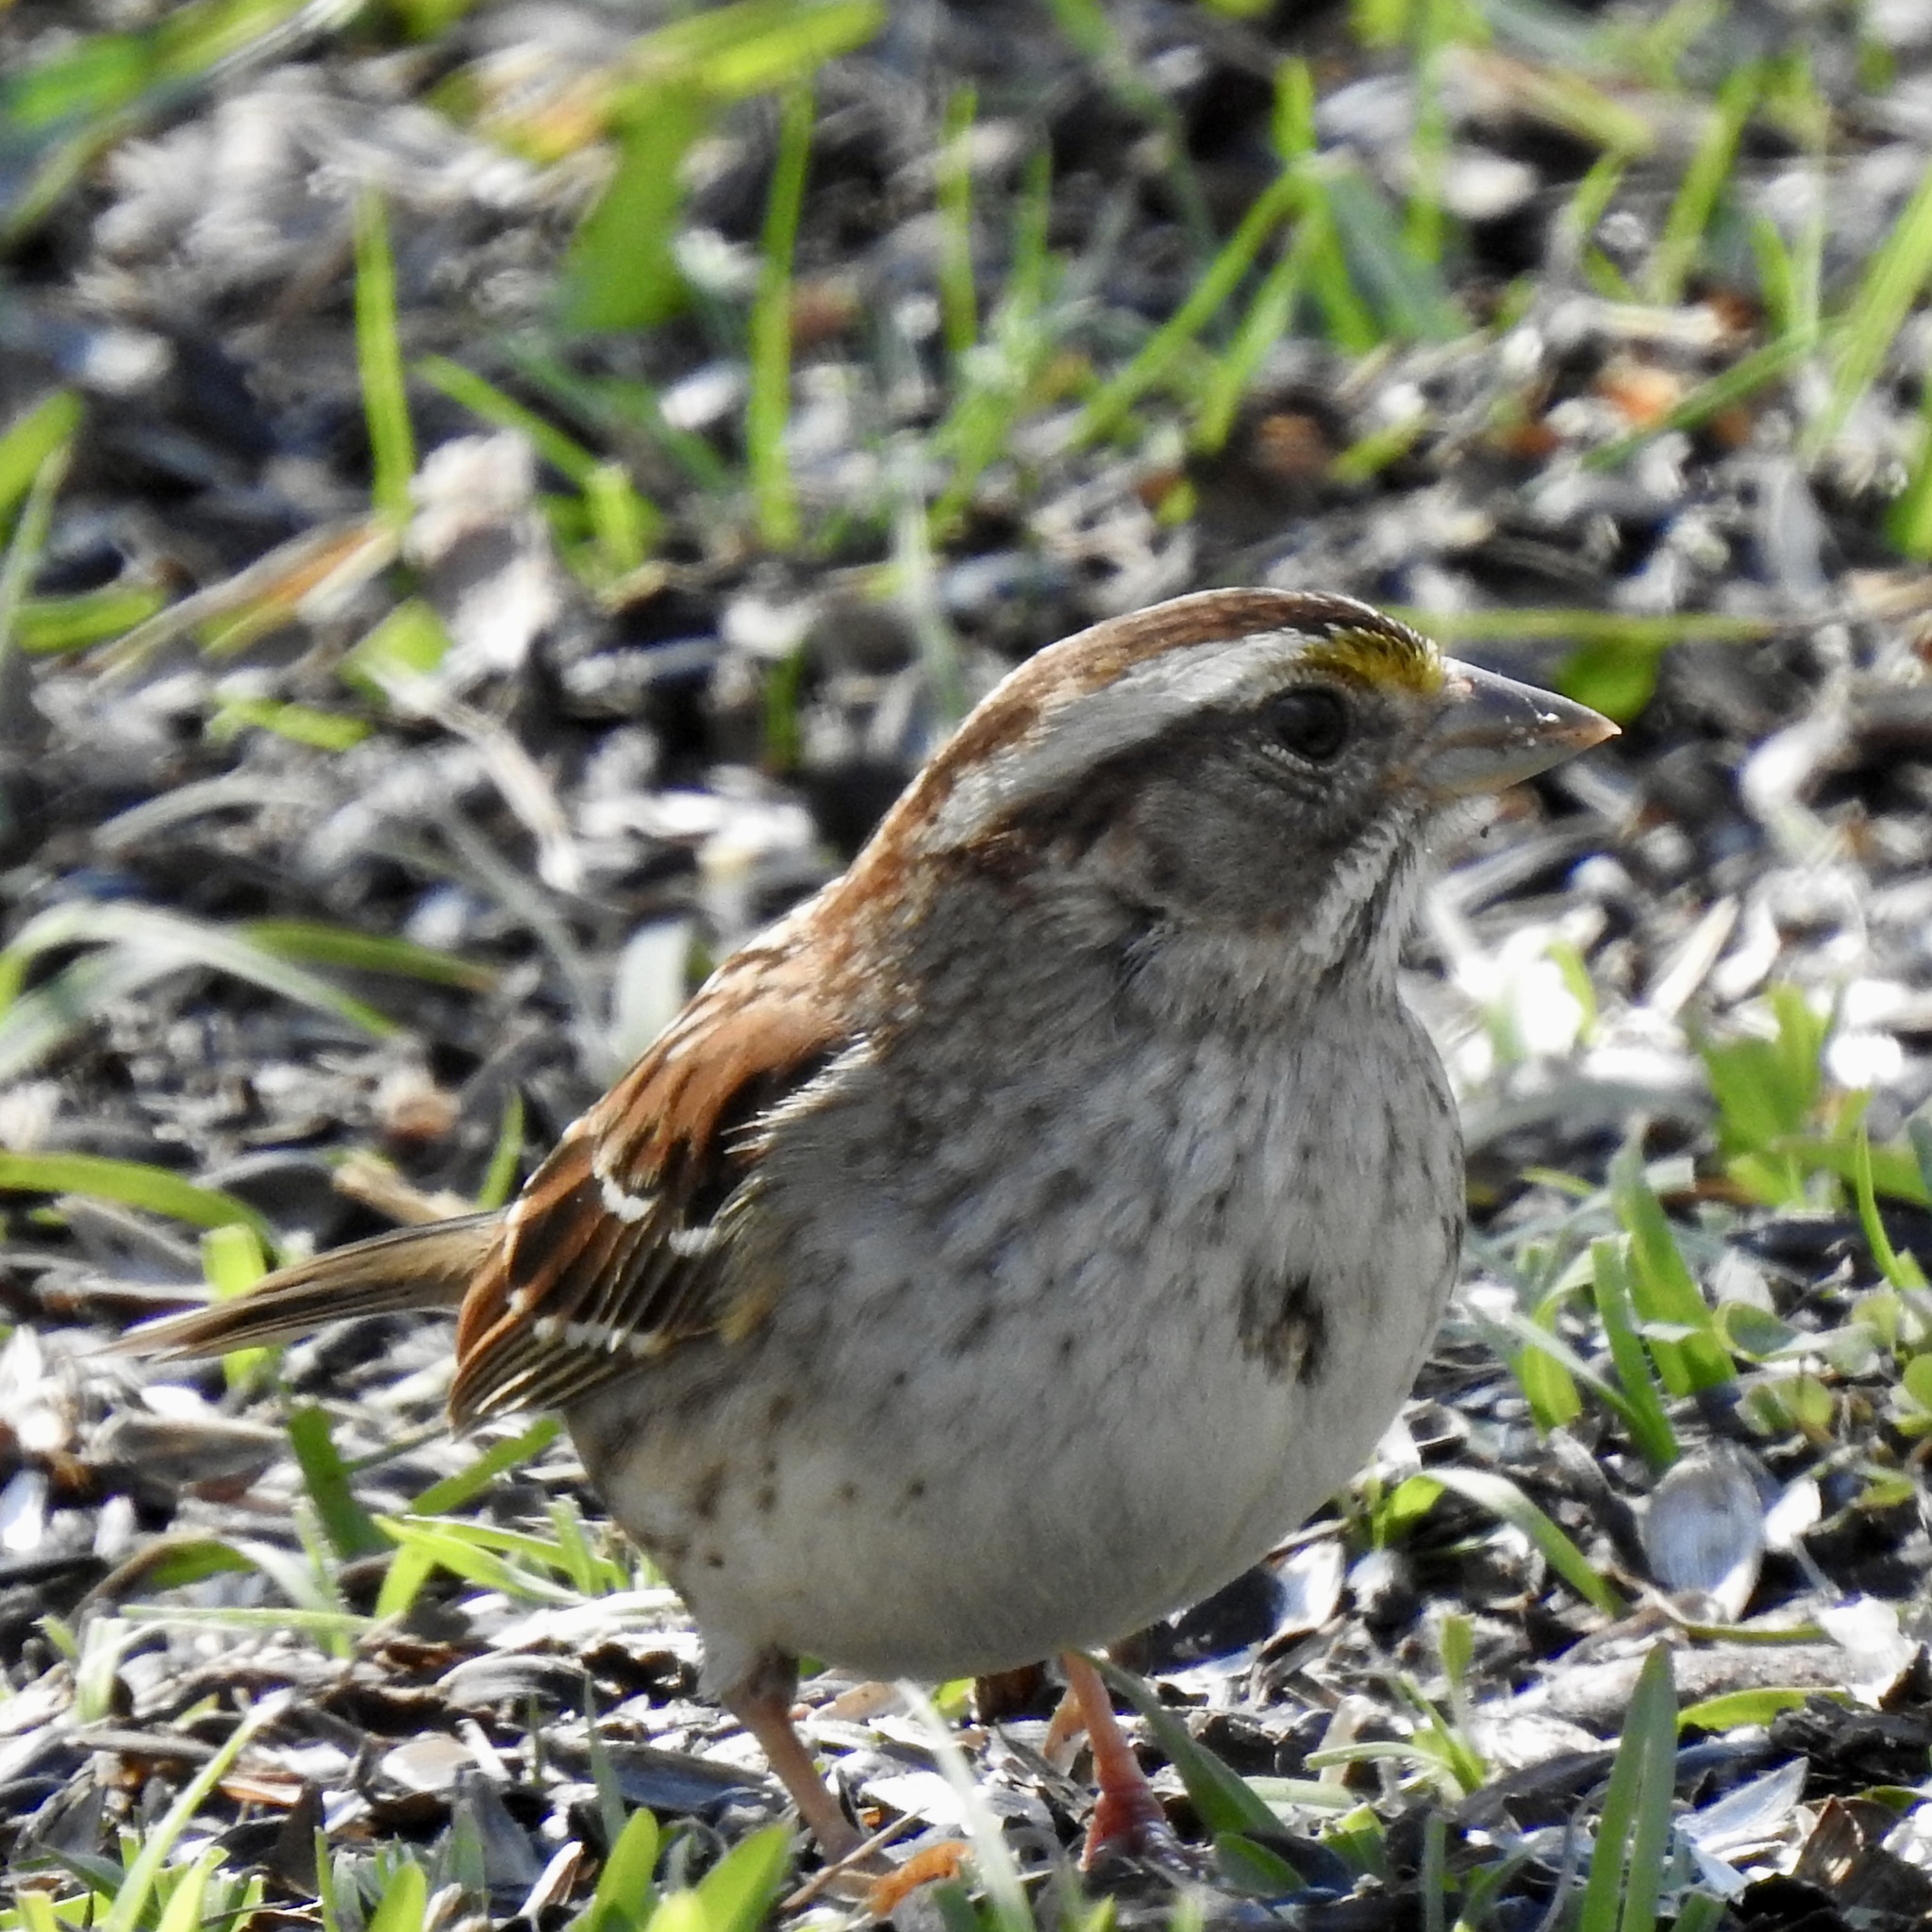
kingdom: Animalia
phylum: Chordata
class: Aves
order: Passeriformes
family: Passerellidae
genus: Zonotrichia
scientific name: Zonotrichia albicollis
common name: White-throated sparrow
